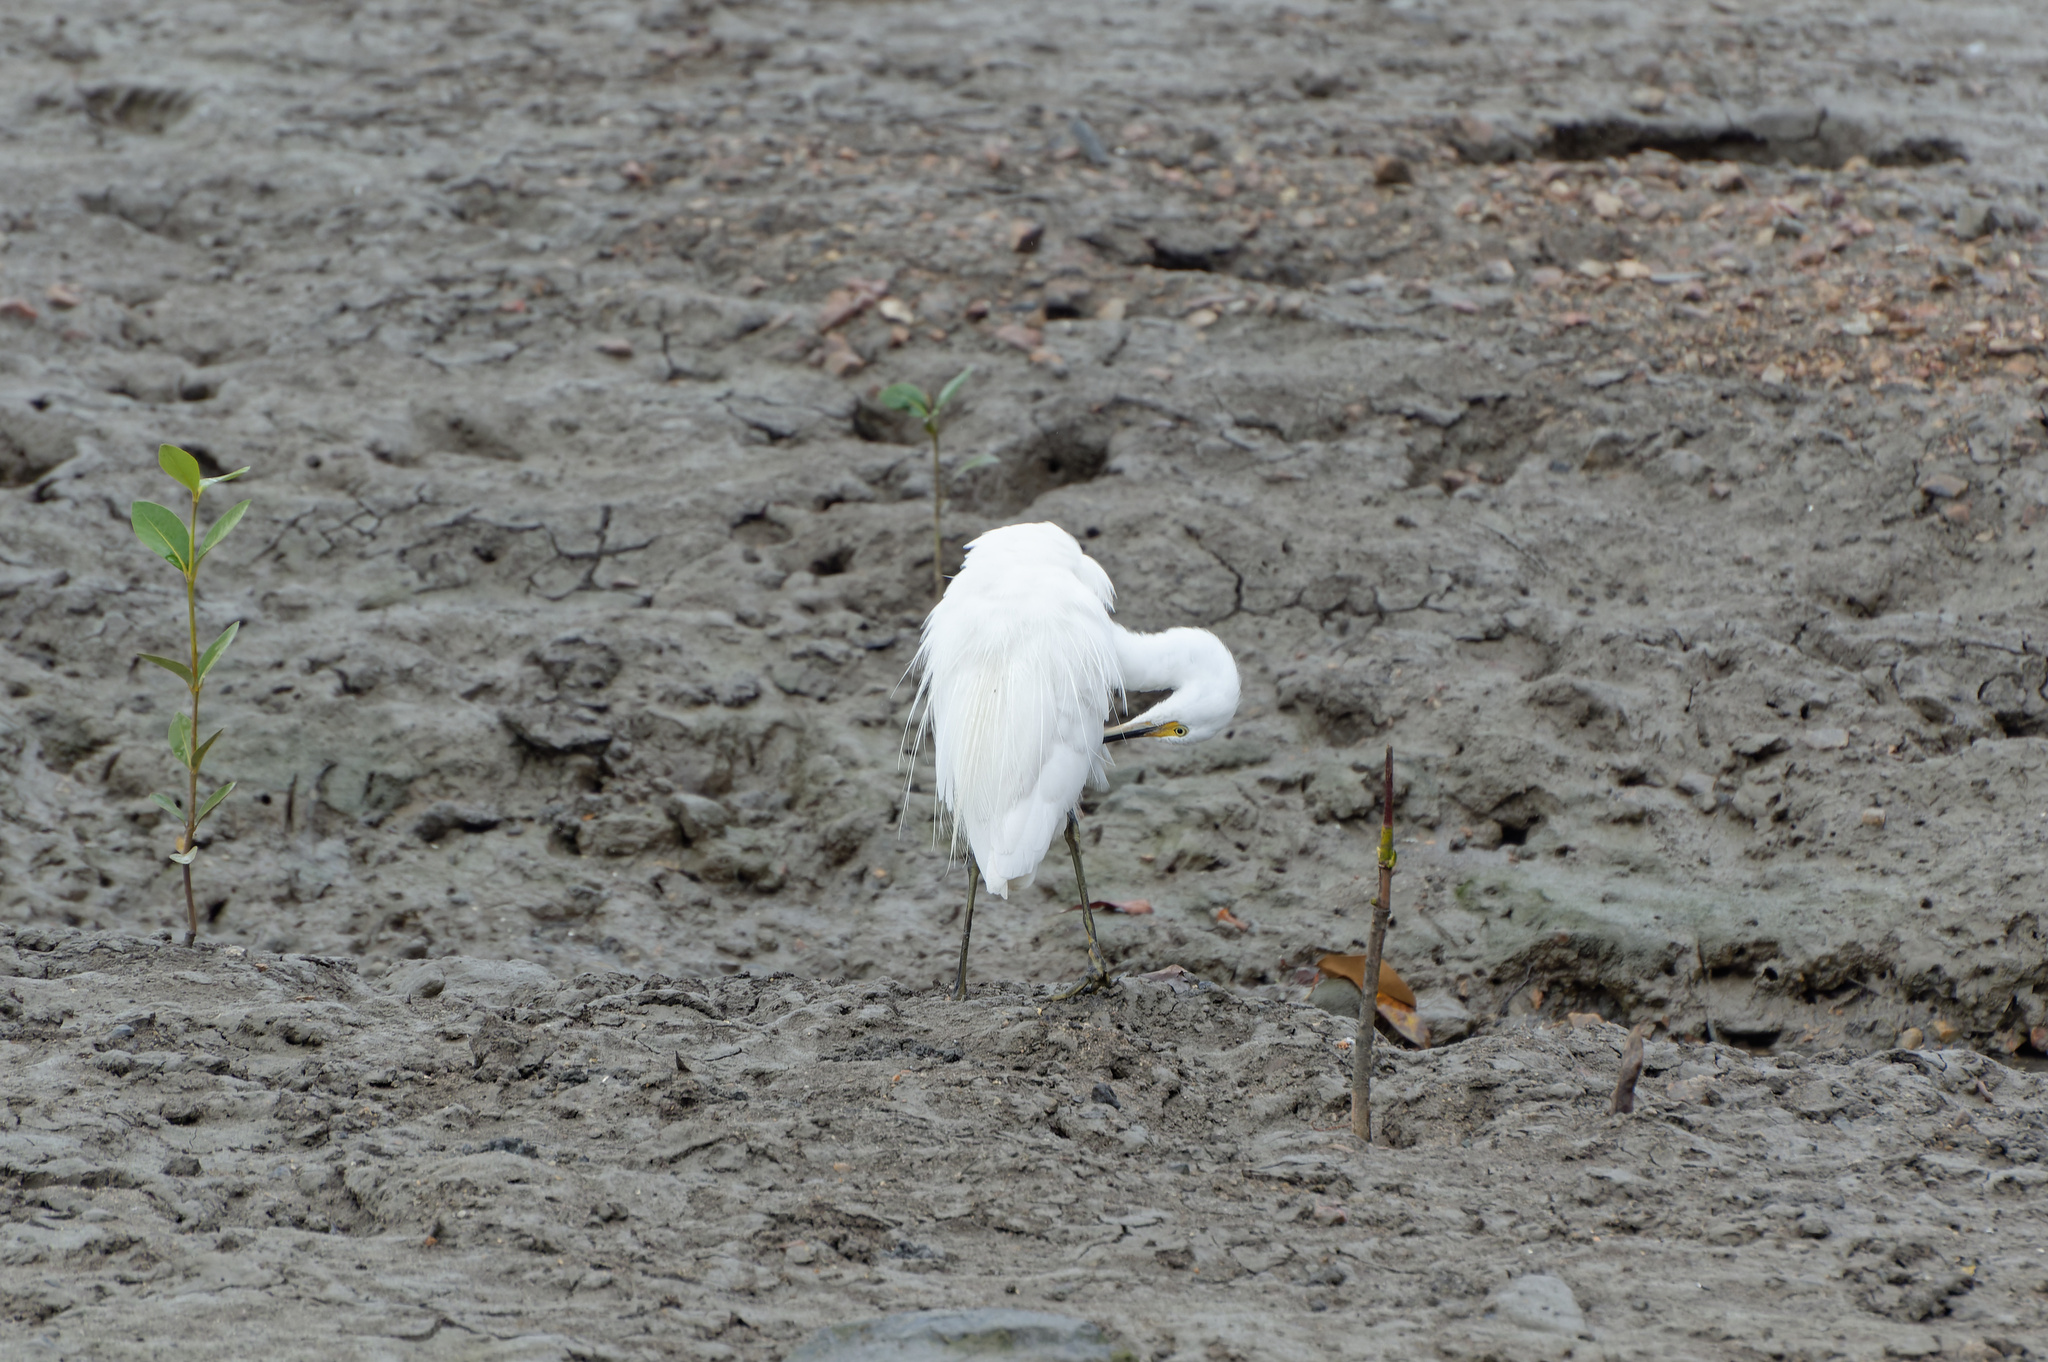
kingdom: Animalia
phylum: Chordata
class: Aves
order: Pelecaniformes
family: Ardeidae
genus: Egretta
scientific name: Egretta garzetta
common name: Little egret
